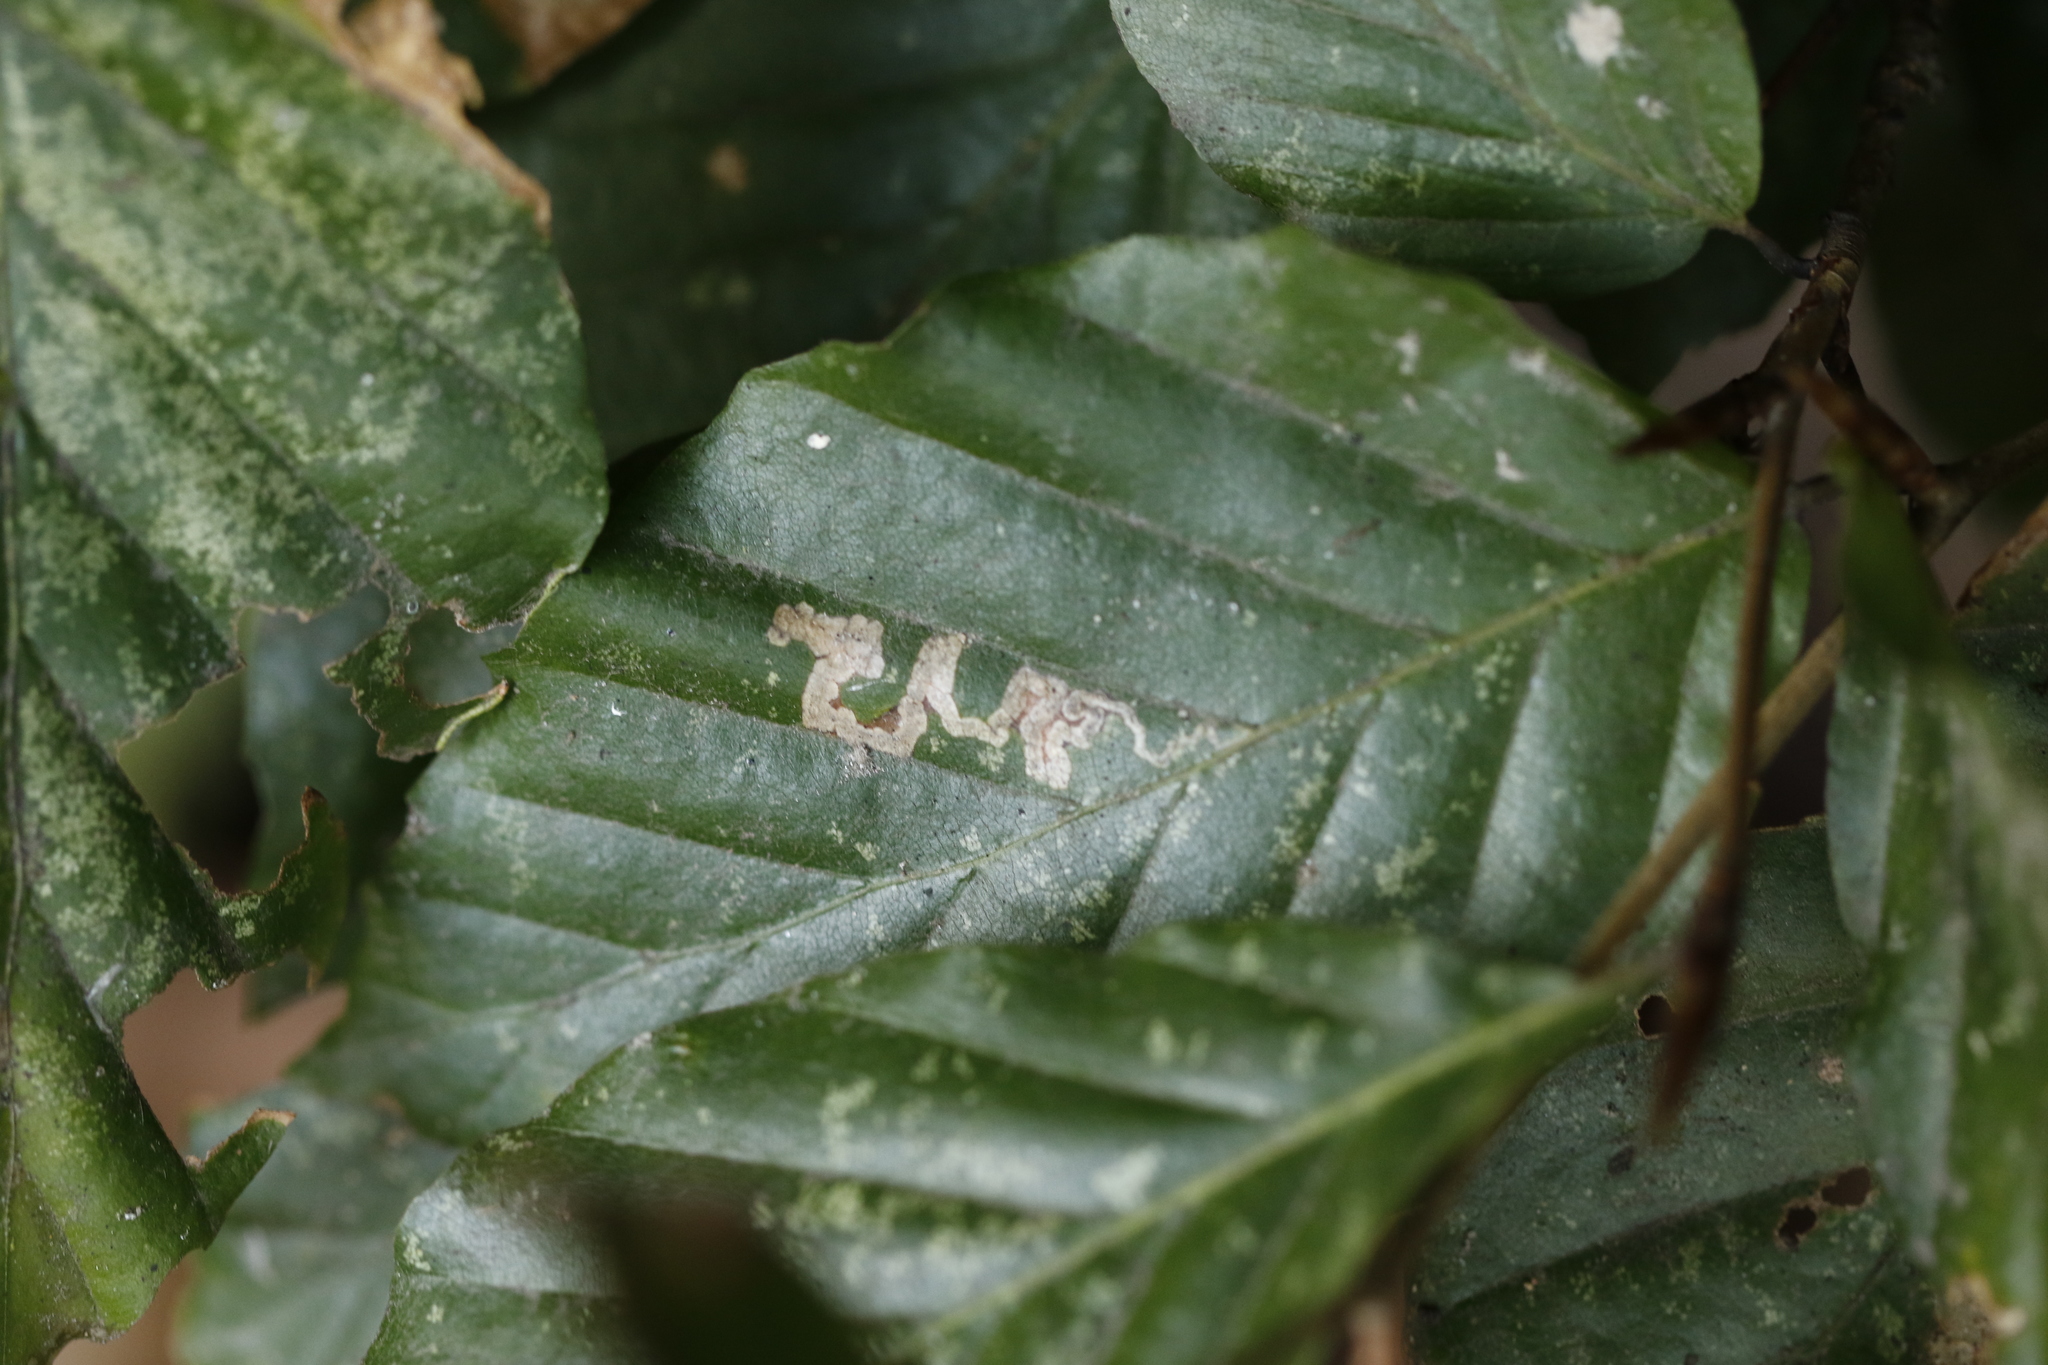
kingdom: Animalia
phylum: Arthropoda
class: Insecta
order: Lepidoptera
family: Nepticulidae
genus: Stigmella
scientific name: Stigmella tityrella
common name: Small beech pigmy
